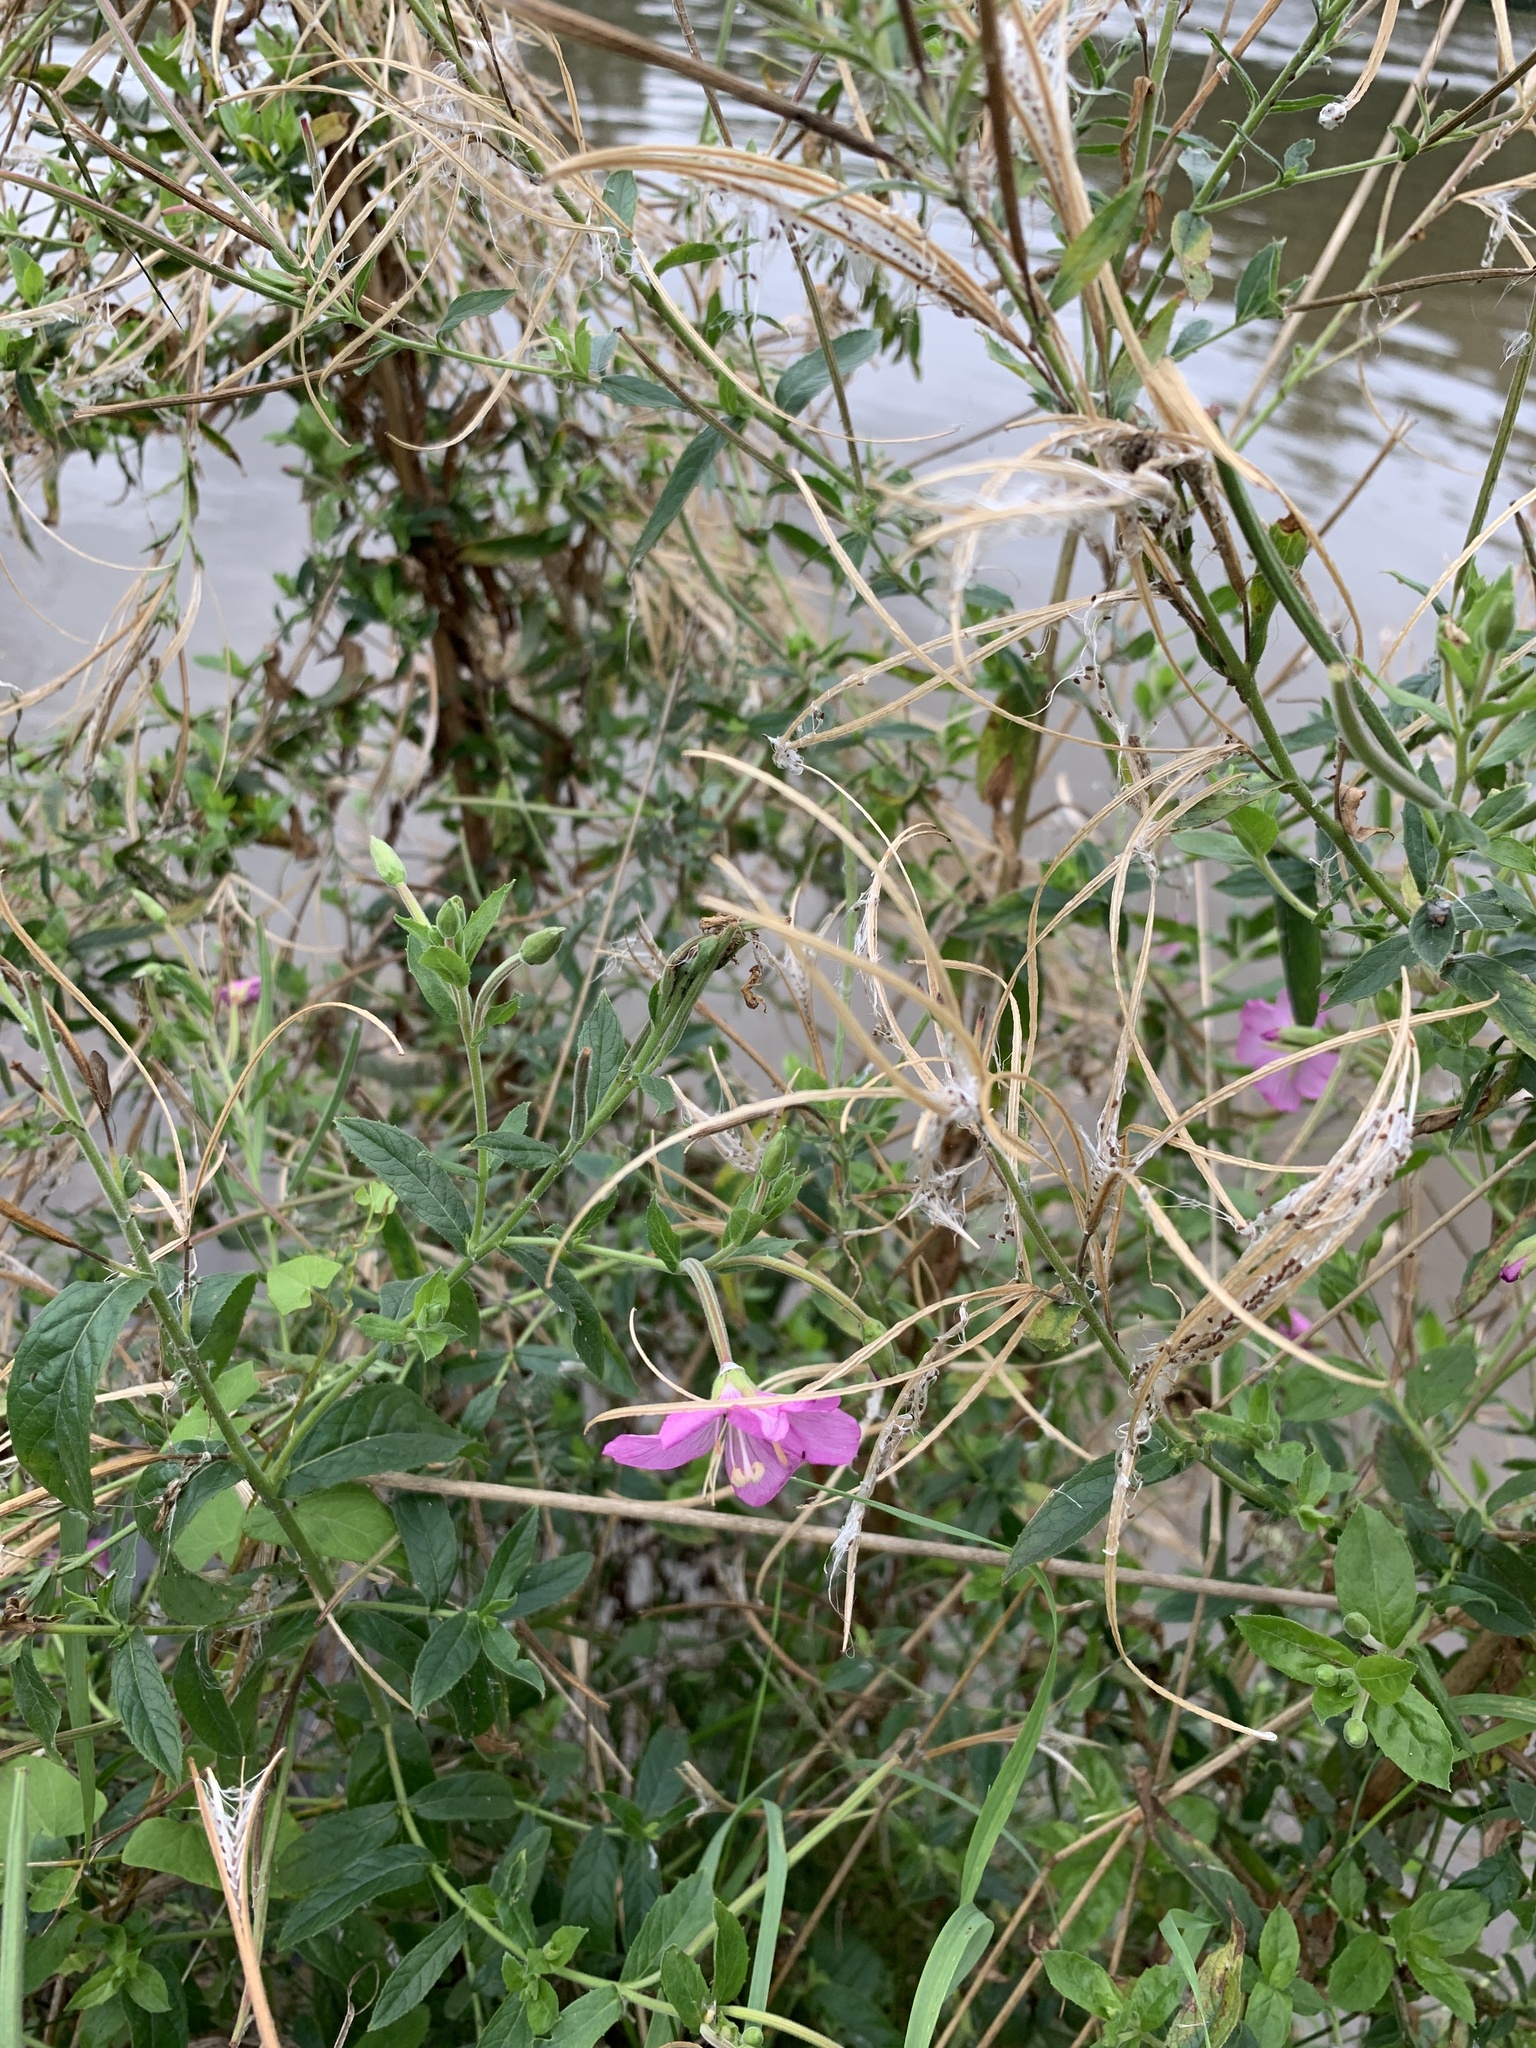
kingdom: Plantae
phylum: Tracheophyta
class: Magnoliopsida
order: Myrtales
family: Onagraceae
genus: Epilobium
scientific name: Epilobium hirsutum
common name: Great willowherb
